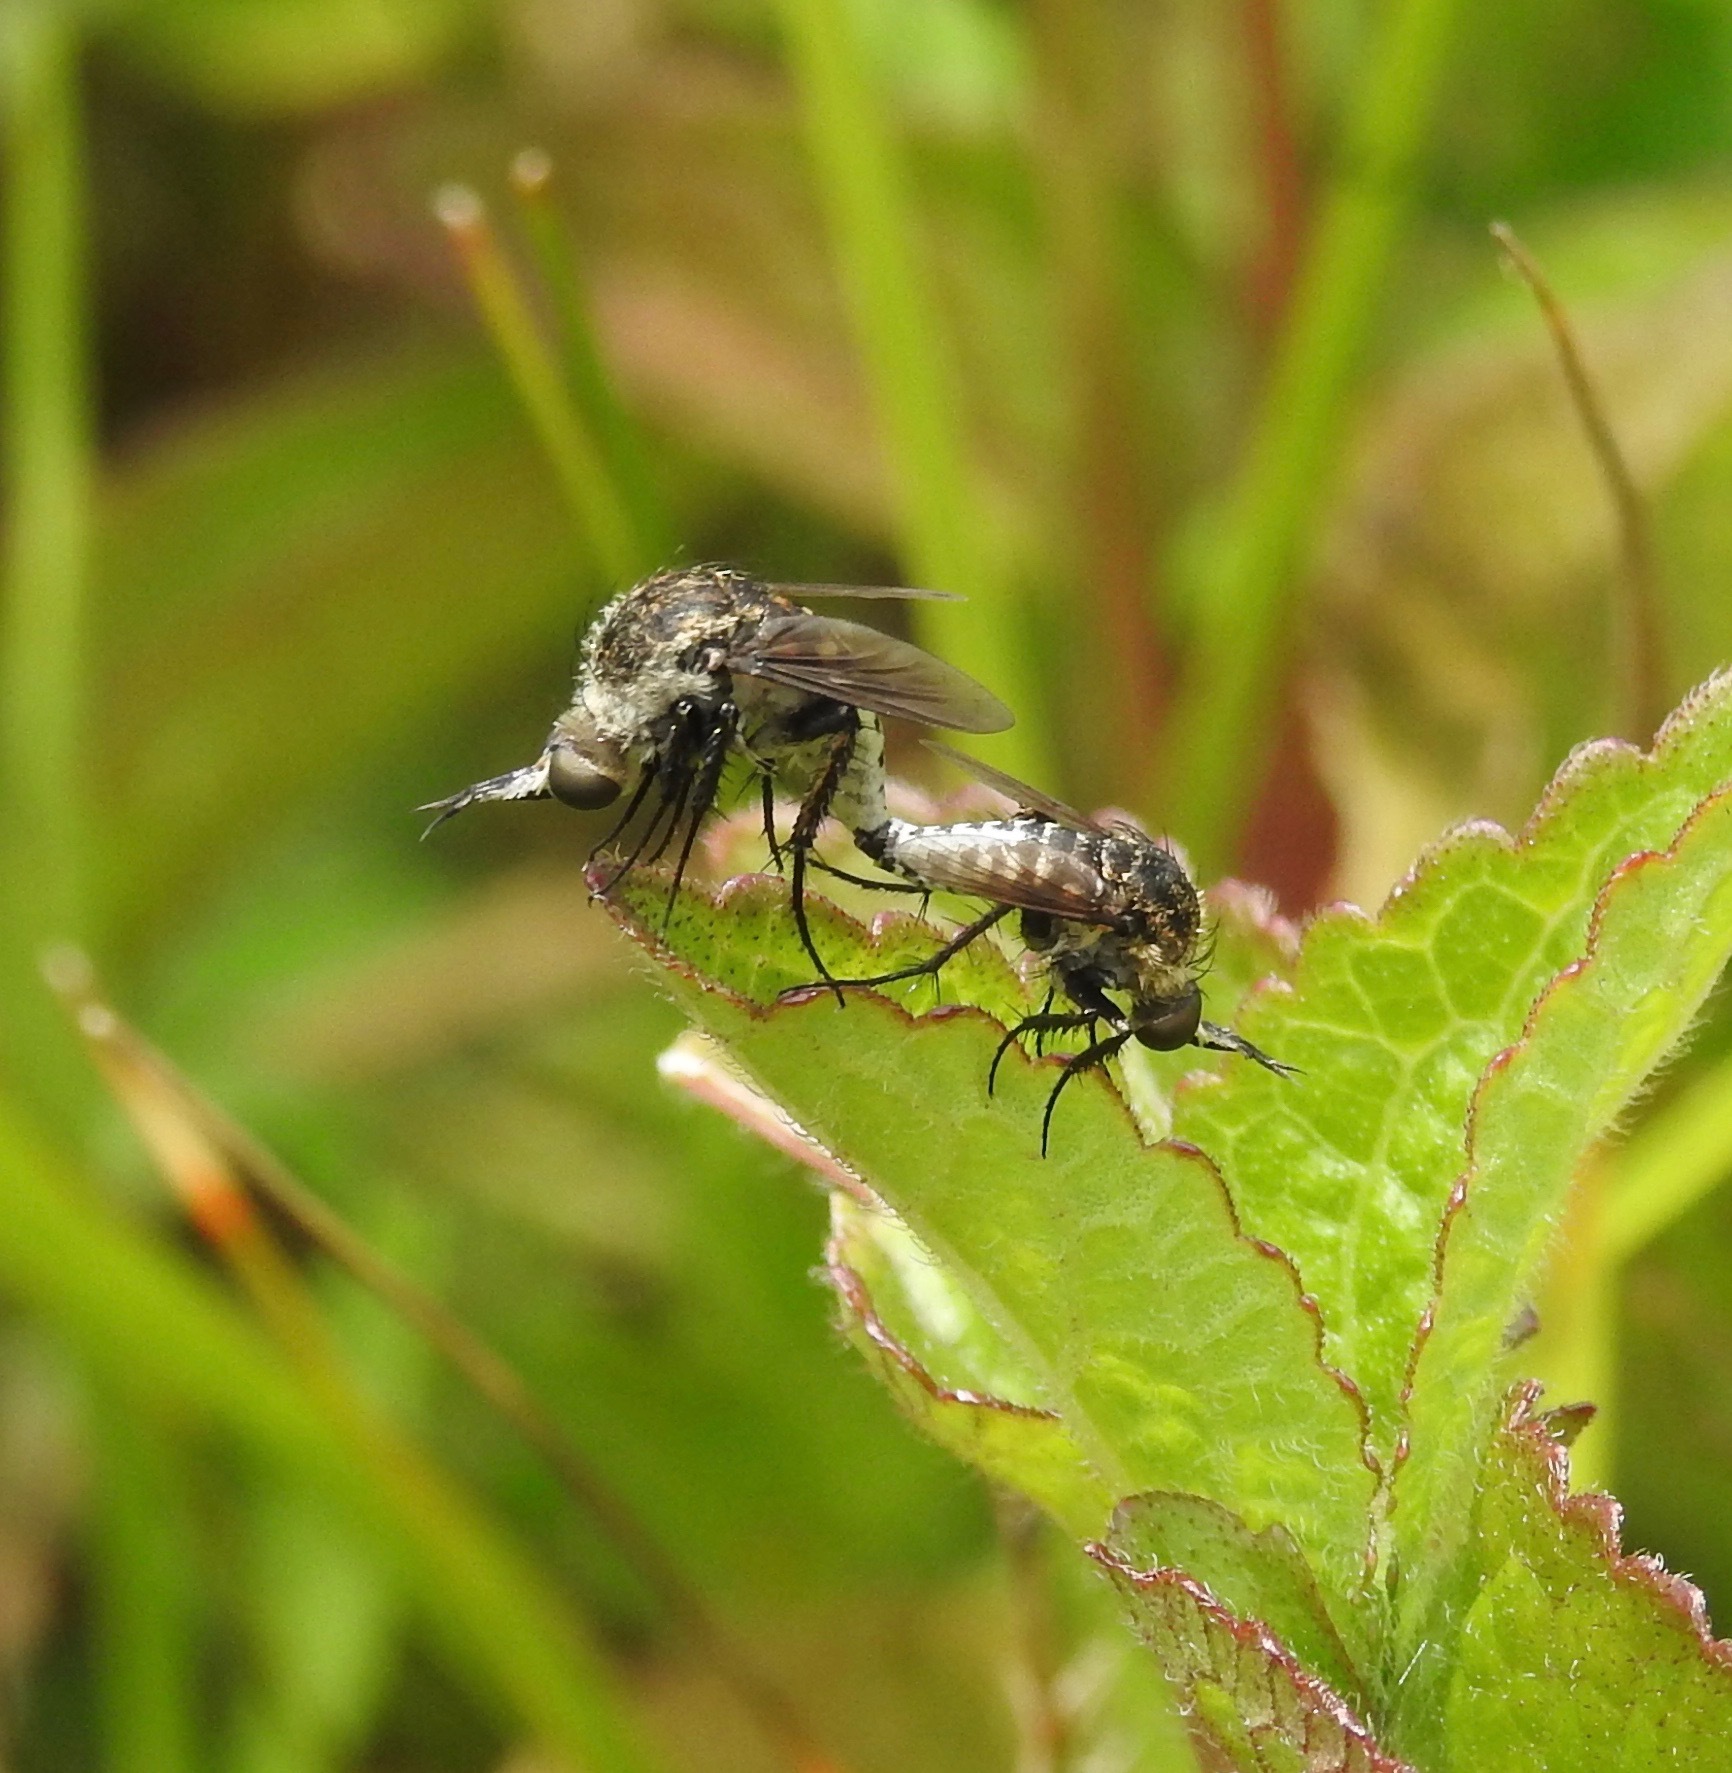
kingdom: Animalia
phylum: Arthropoda
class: Insecta
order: Diptera
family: Bombyliidae
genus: Toxophora
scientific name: Toxophora amphitea
